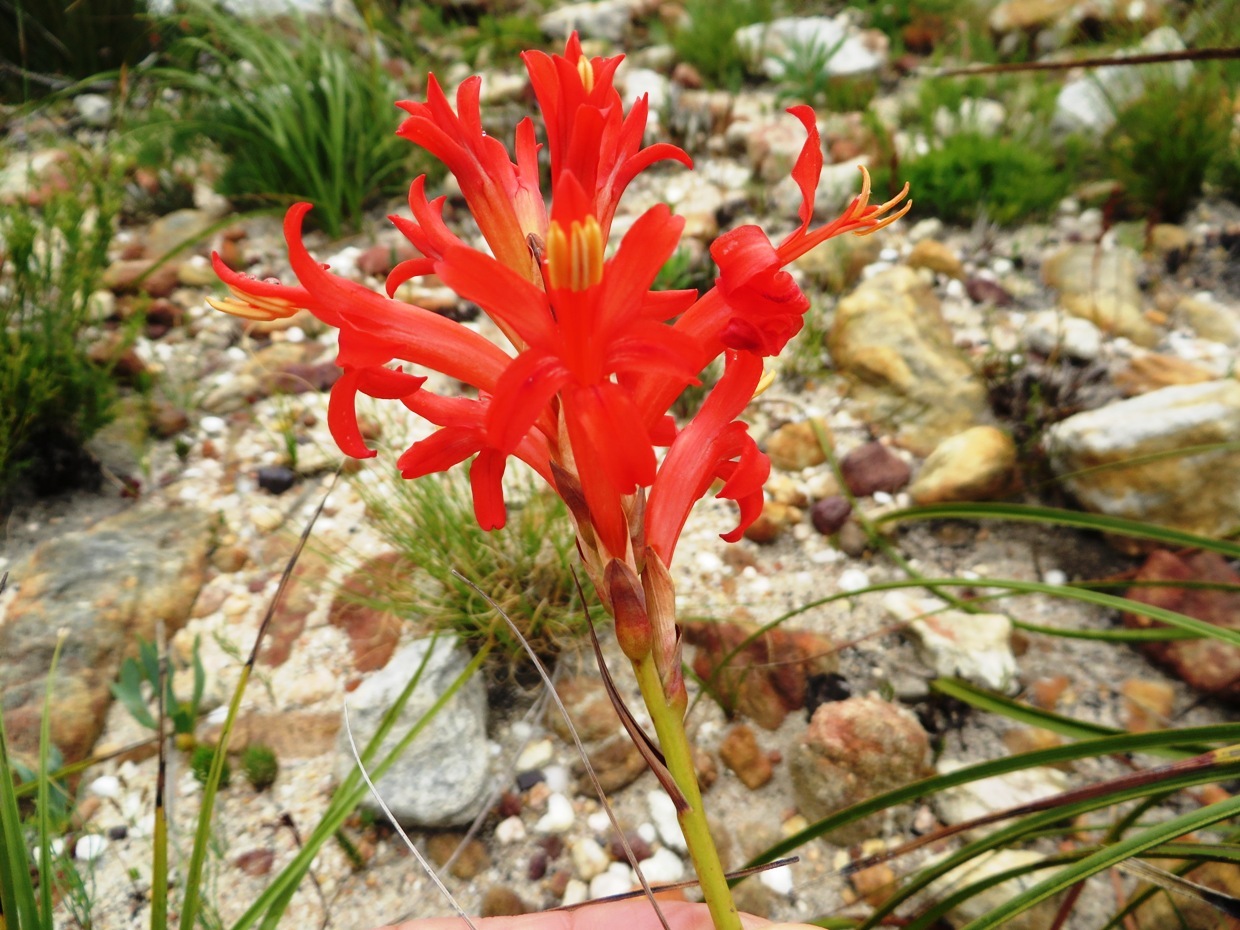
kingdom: Plantae
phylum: Tracheophyta
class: Liliopsida
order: Asparagales
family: Iridaceae
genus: Tritoniopsis
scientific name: Tritoniopsis triticea
